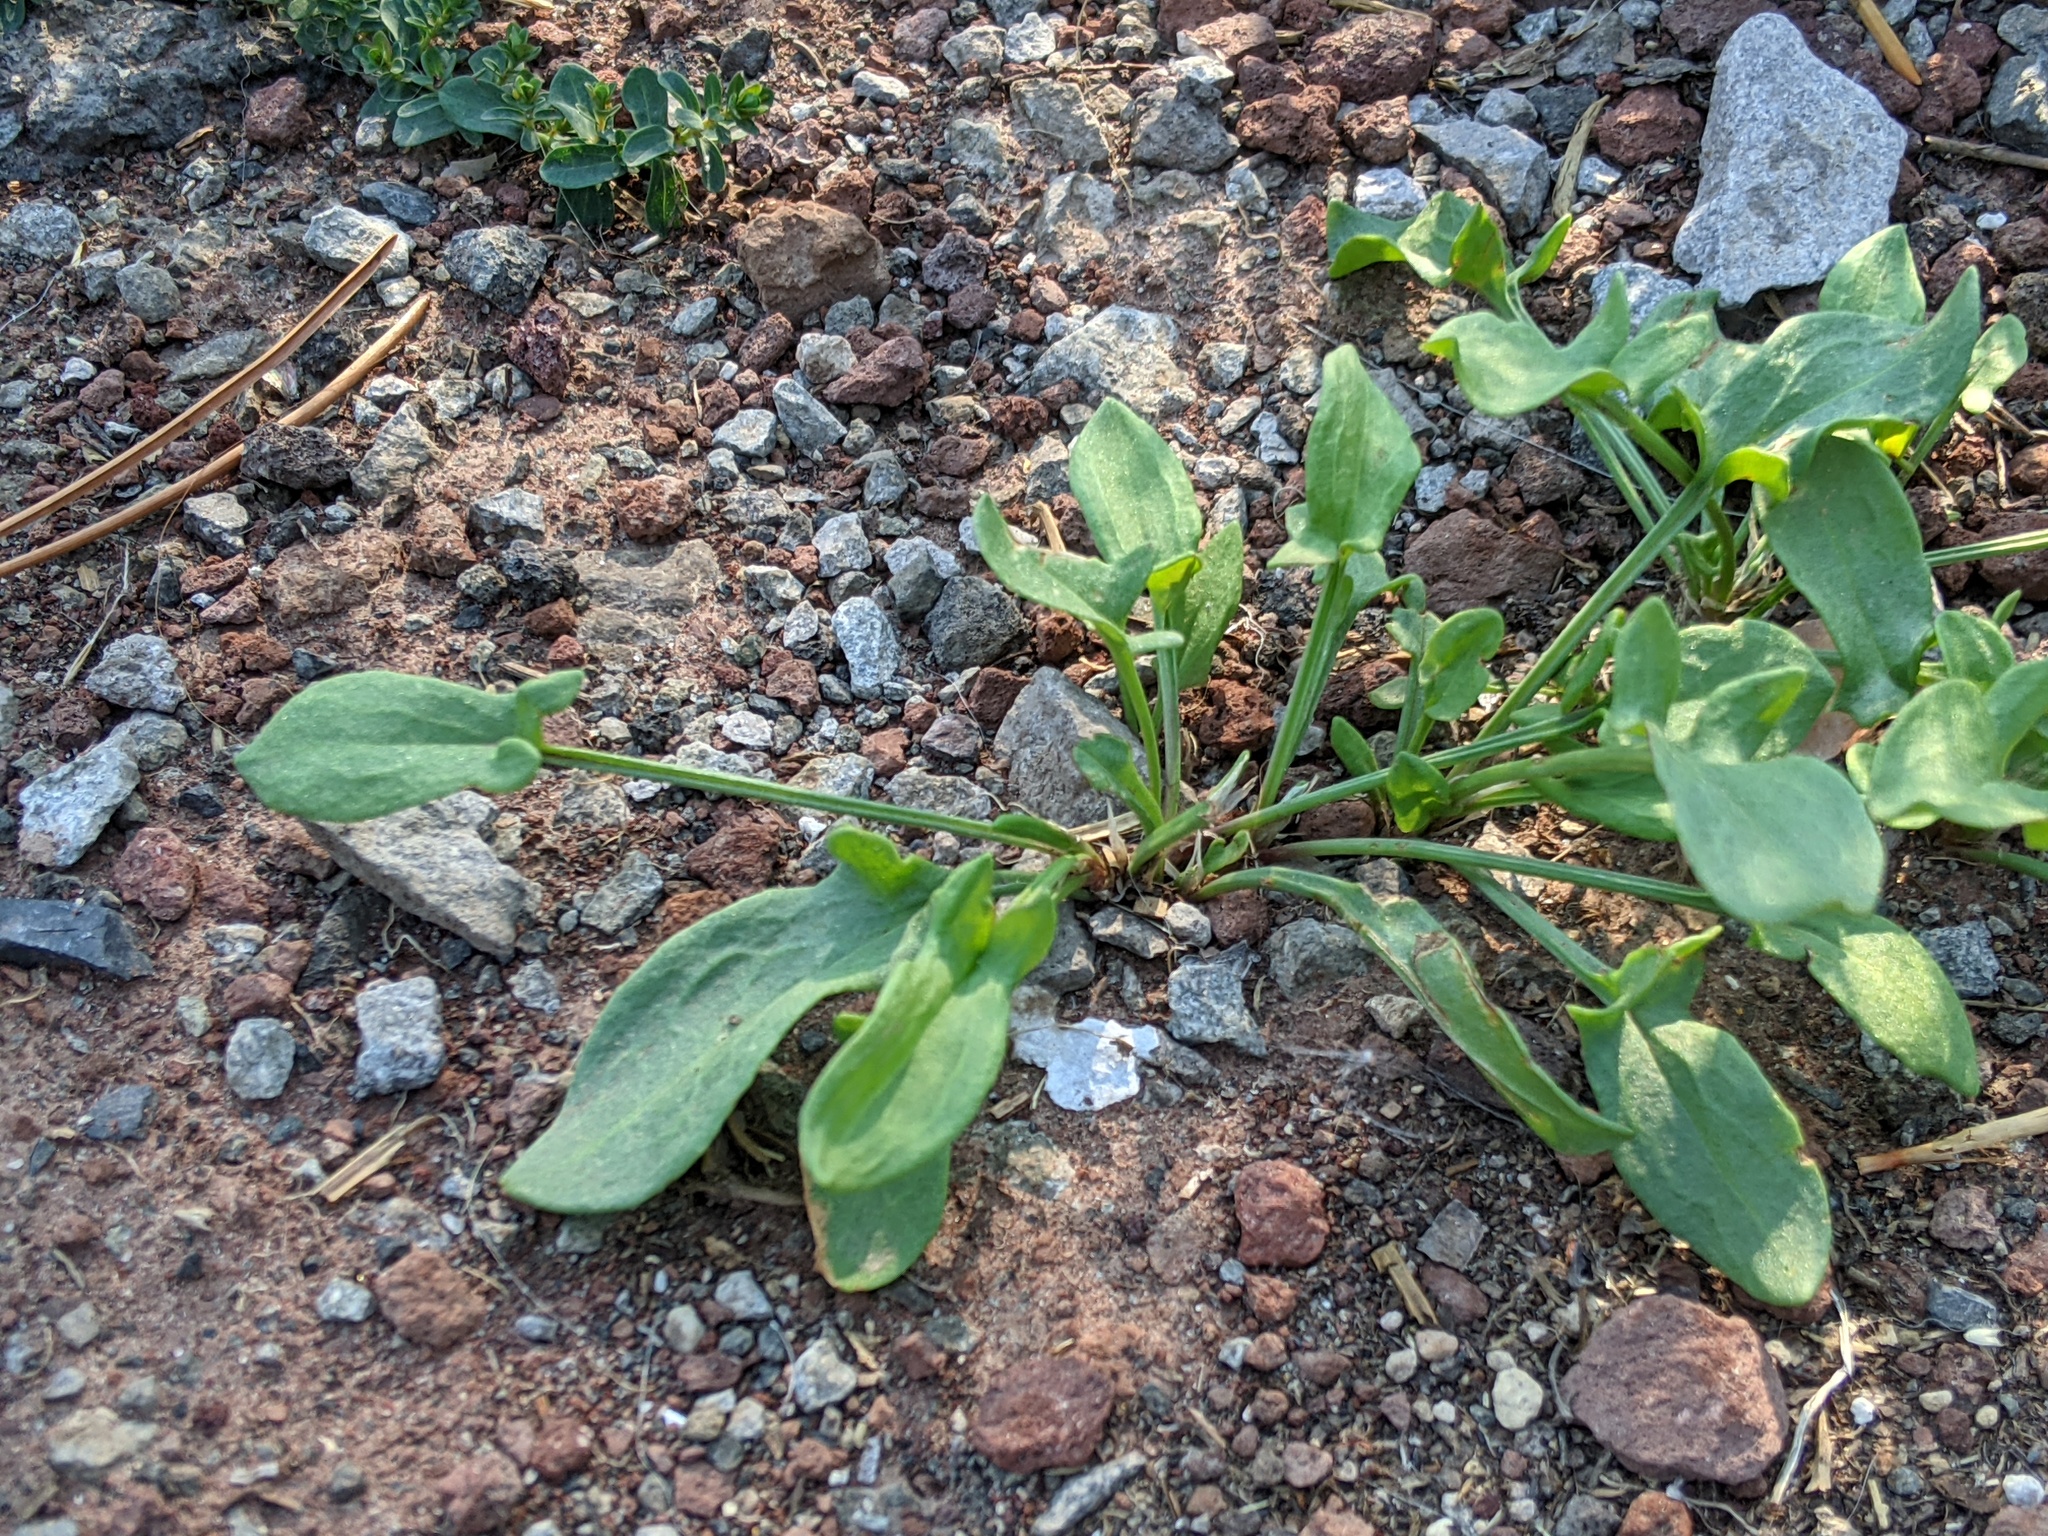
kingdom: Plantae
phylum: Tracheophyta
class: Magnoliopsida
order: Caryophyllales
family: Polygonaceae
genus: Rumex
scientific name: Rumex acetosella
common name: Common sheep sorrel
